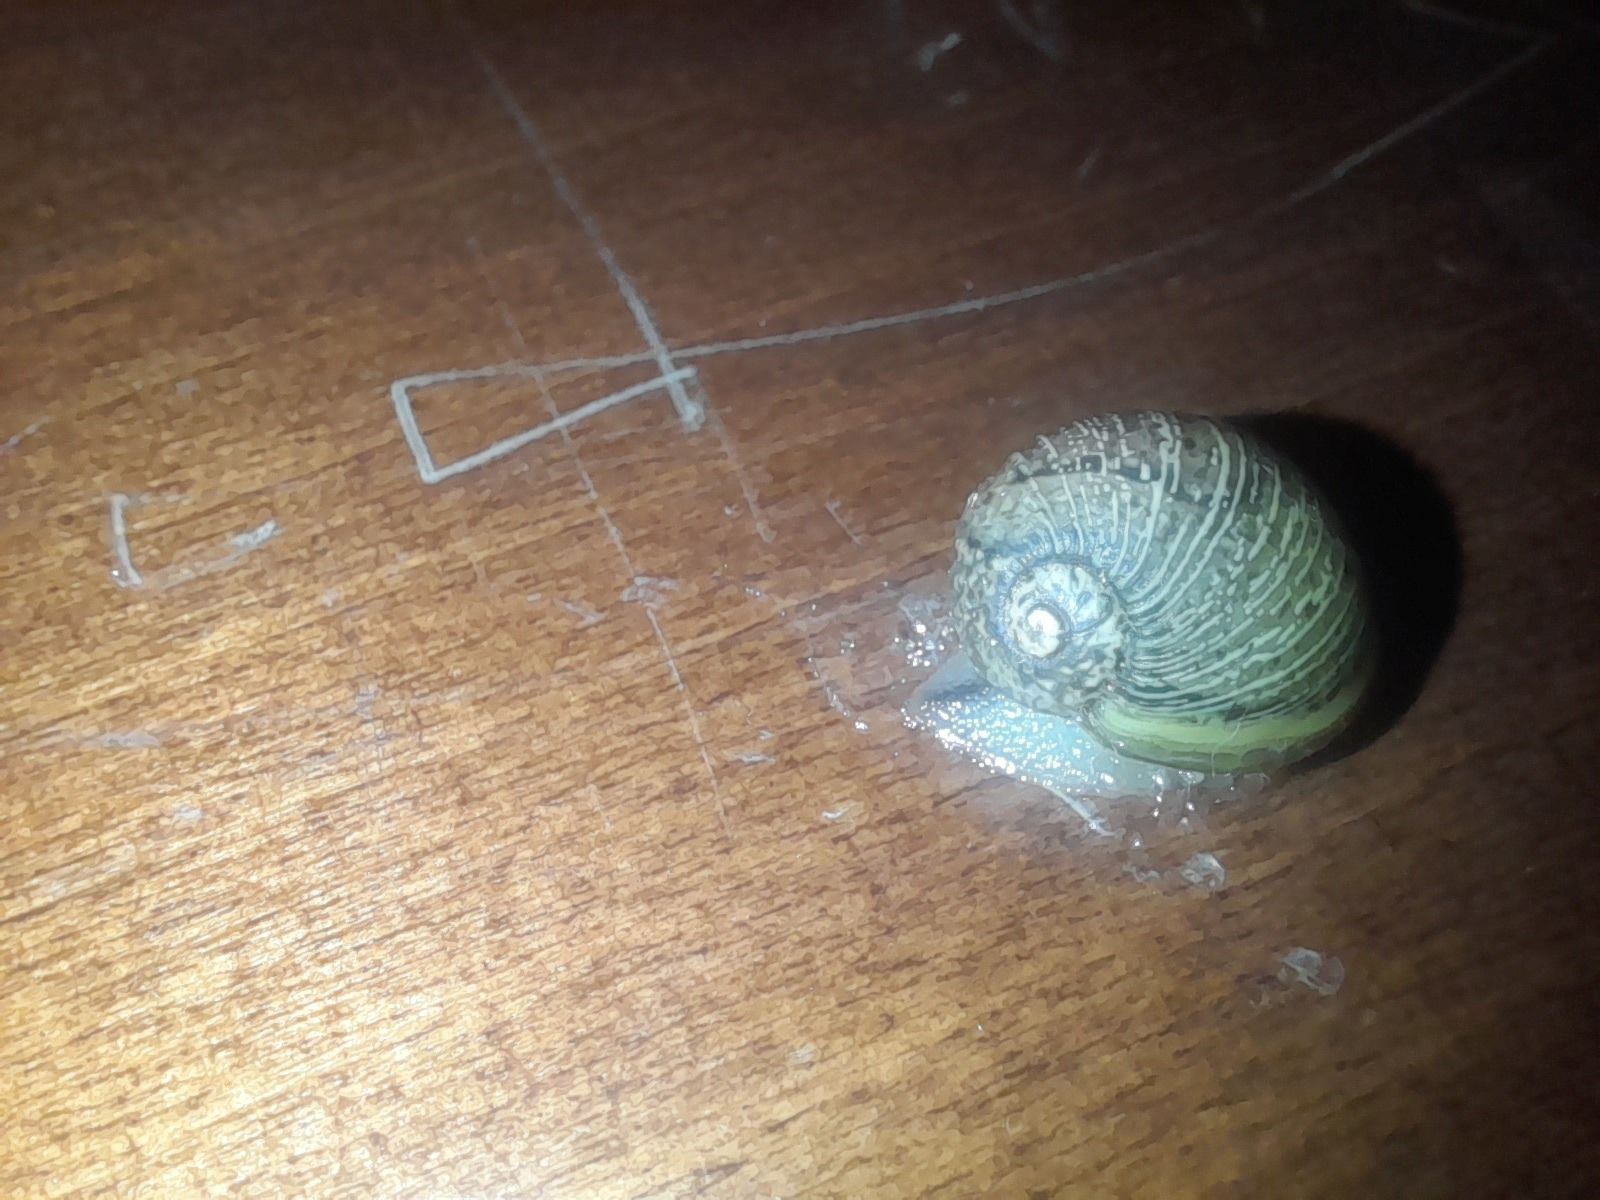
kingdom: Animalia
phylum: Mollusca
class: Gastropoda
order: Stylommatophora
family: Helicidae
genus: Cantareus
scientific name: Cantareus apertus
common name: Green gardensnail
